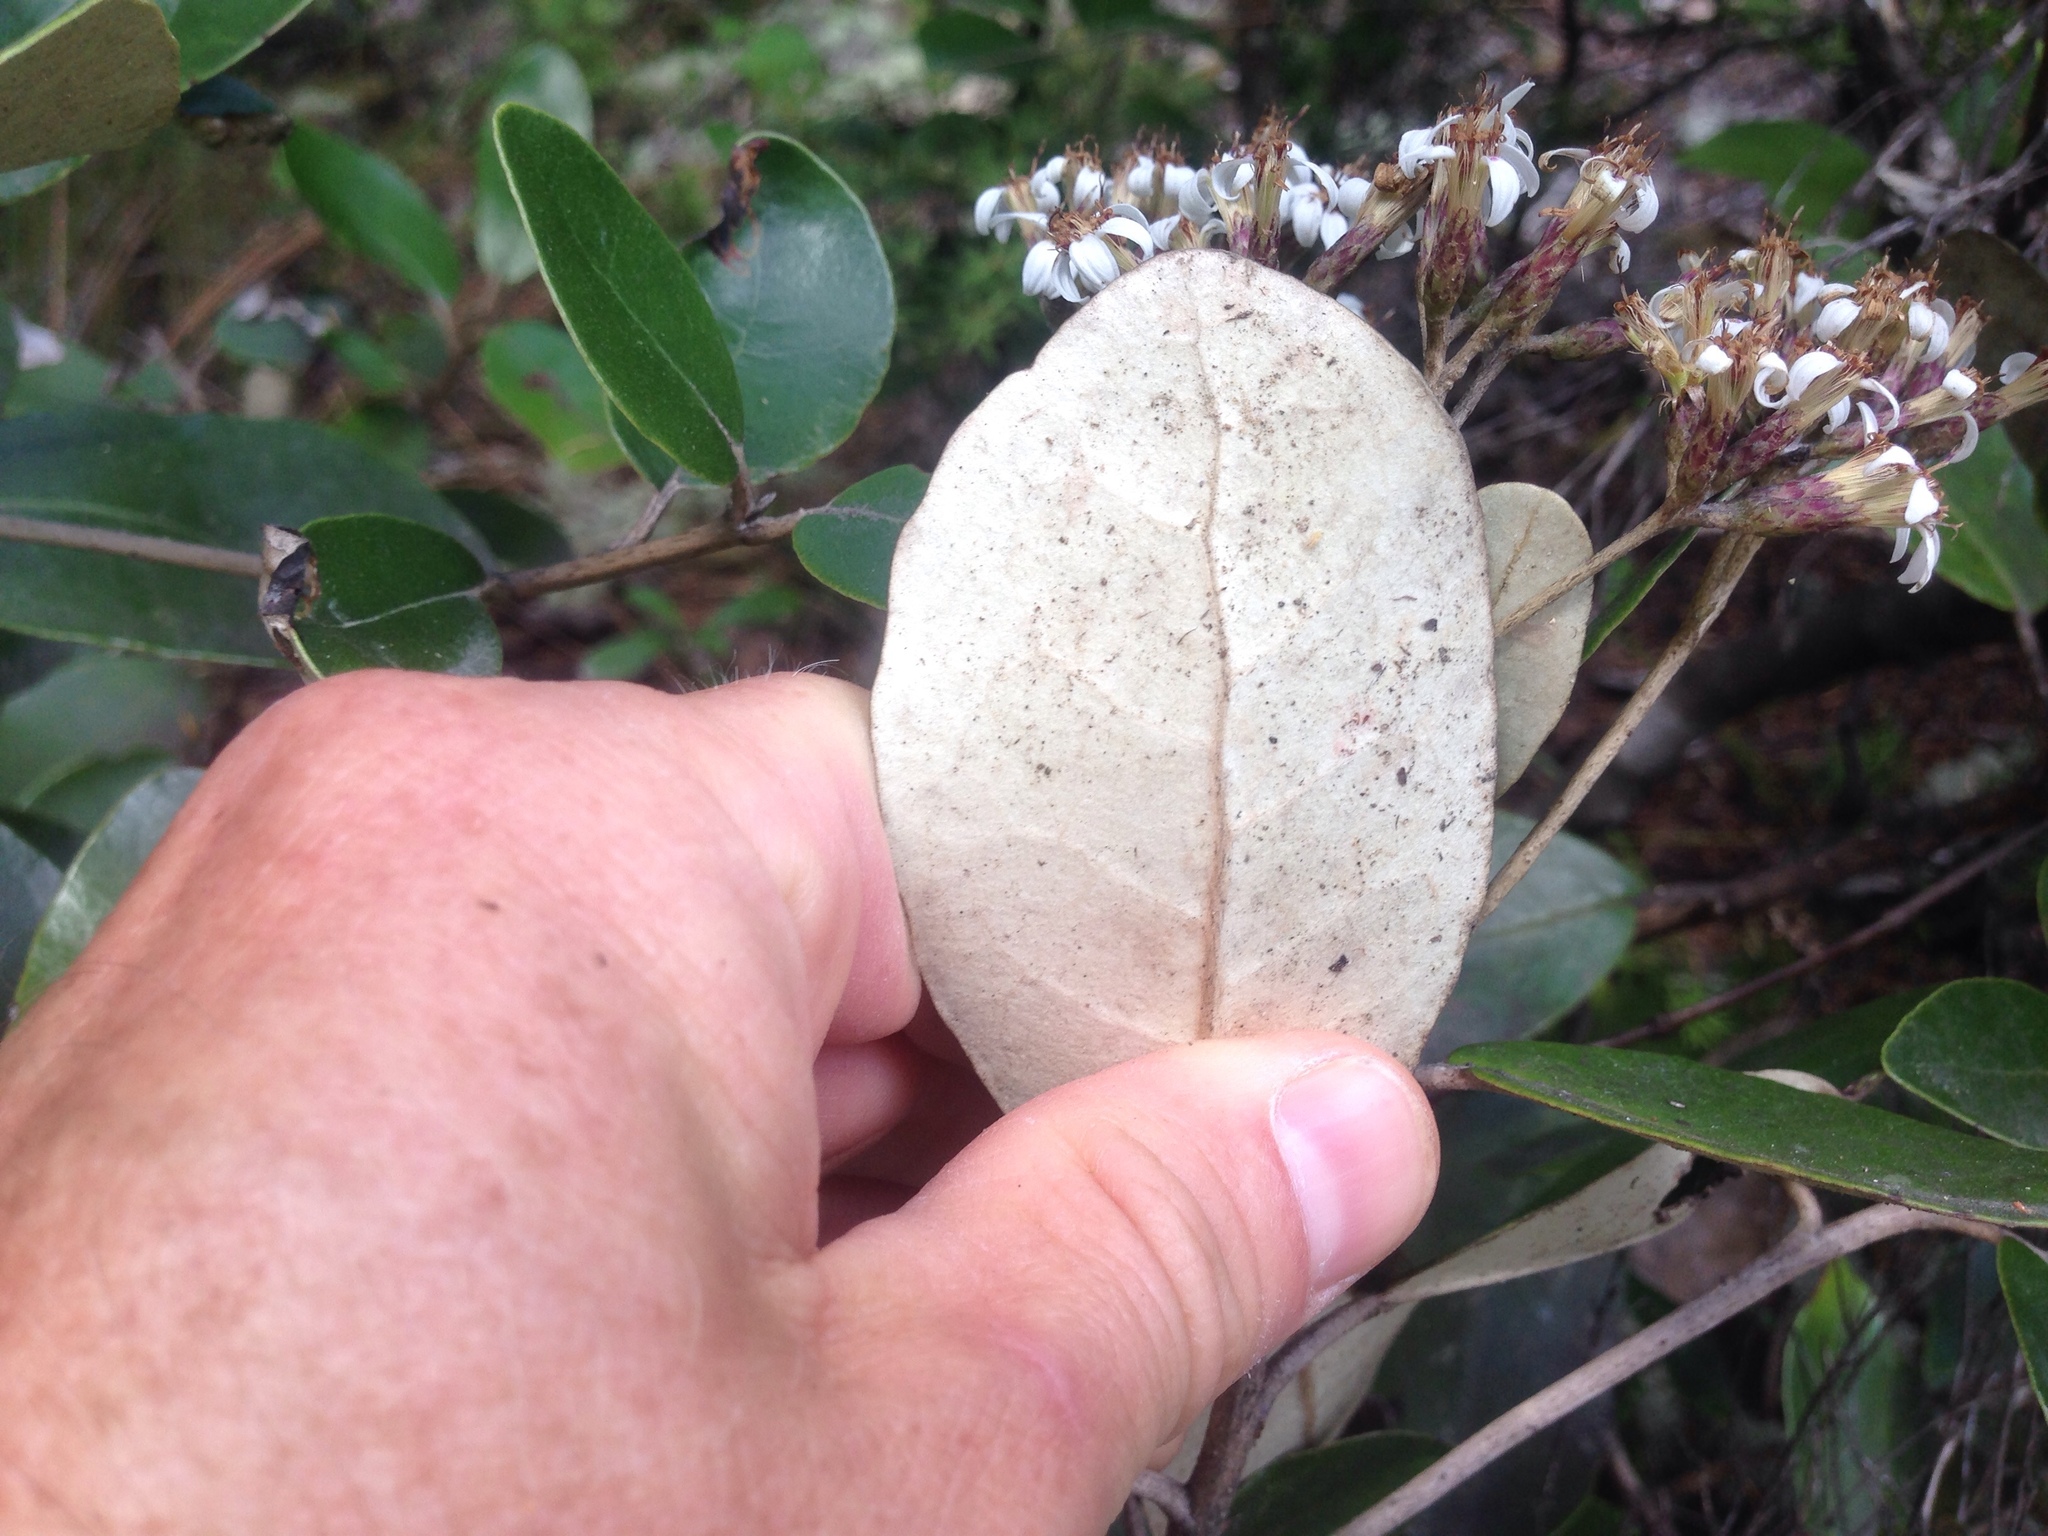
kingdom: Plantae
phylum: Tracheophyta
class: Magnoliopsida
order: Asterales
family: Asteraceae
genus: Olearia
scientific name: Olearia townsonii
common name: Coromandel tree daisy
